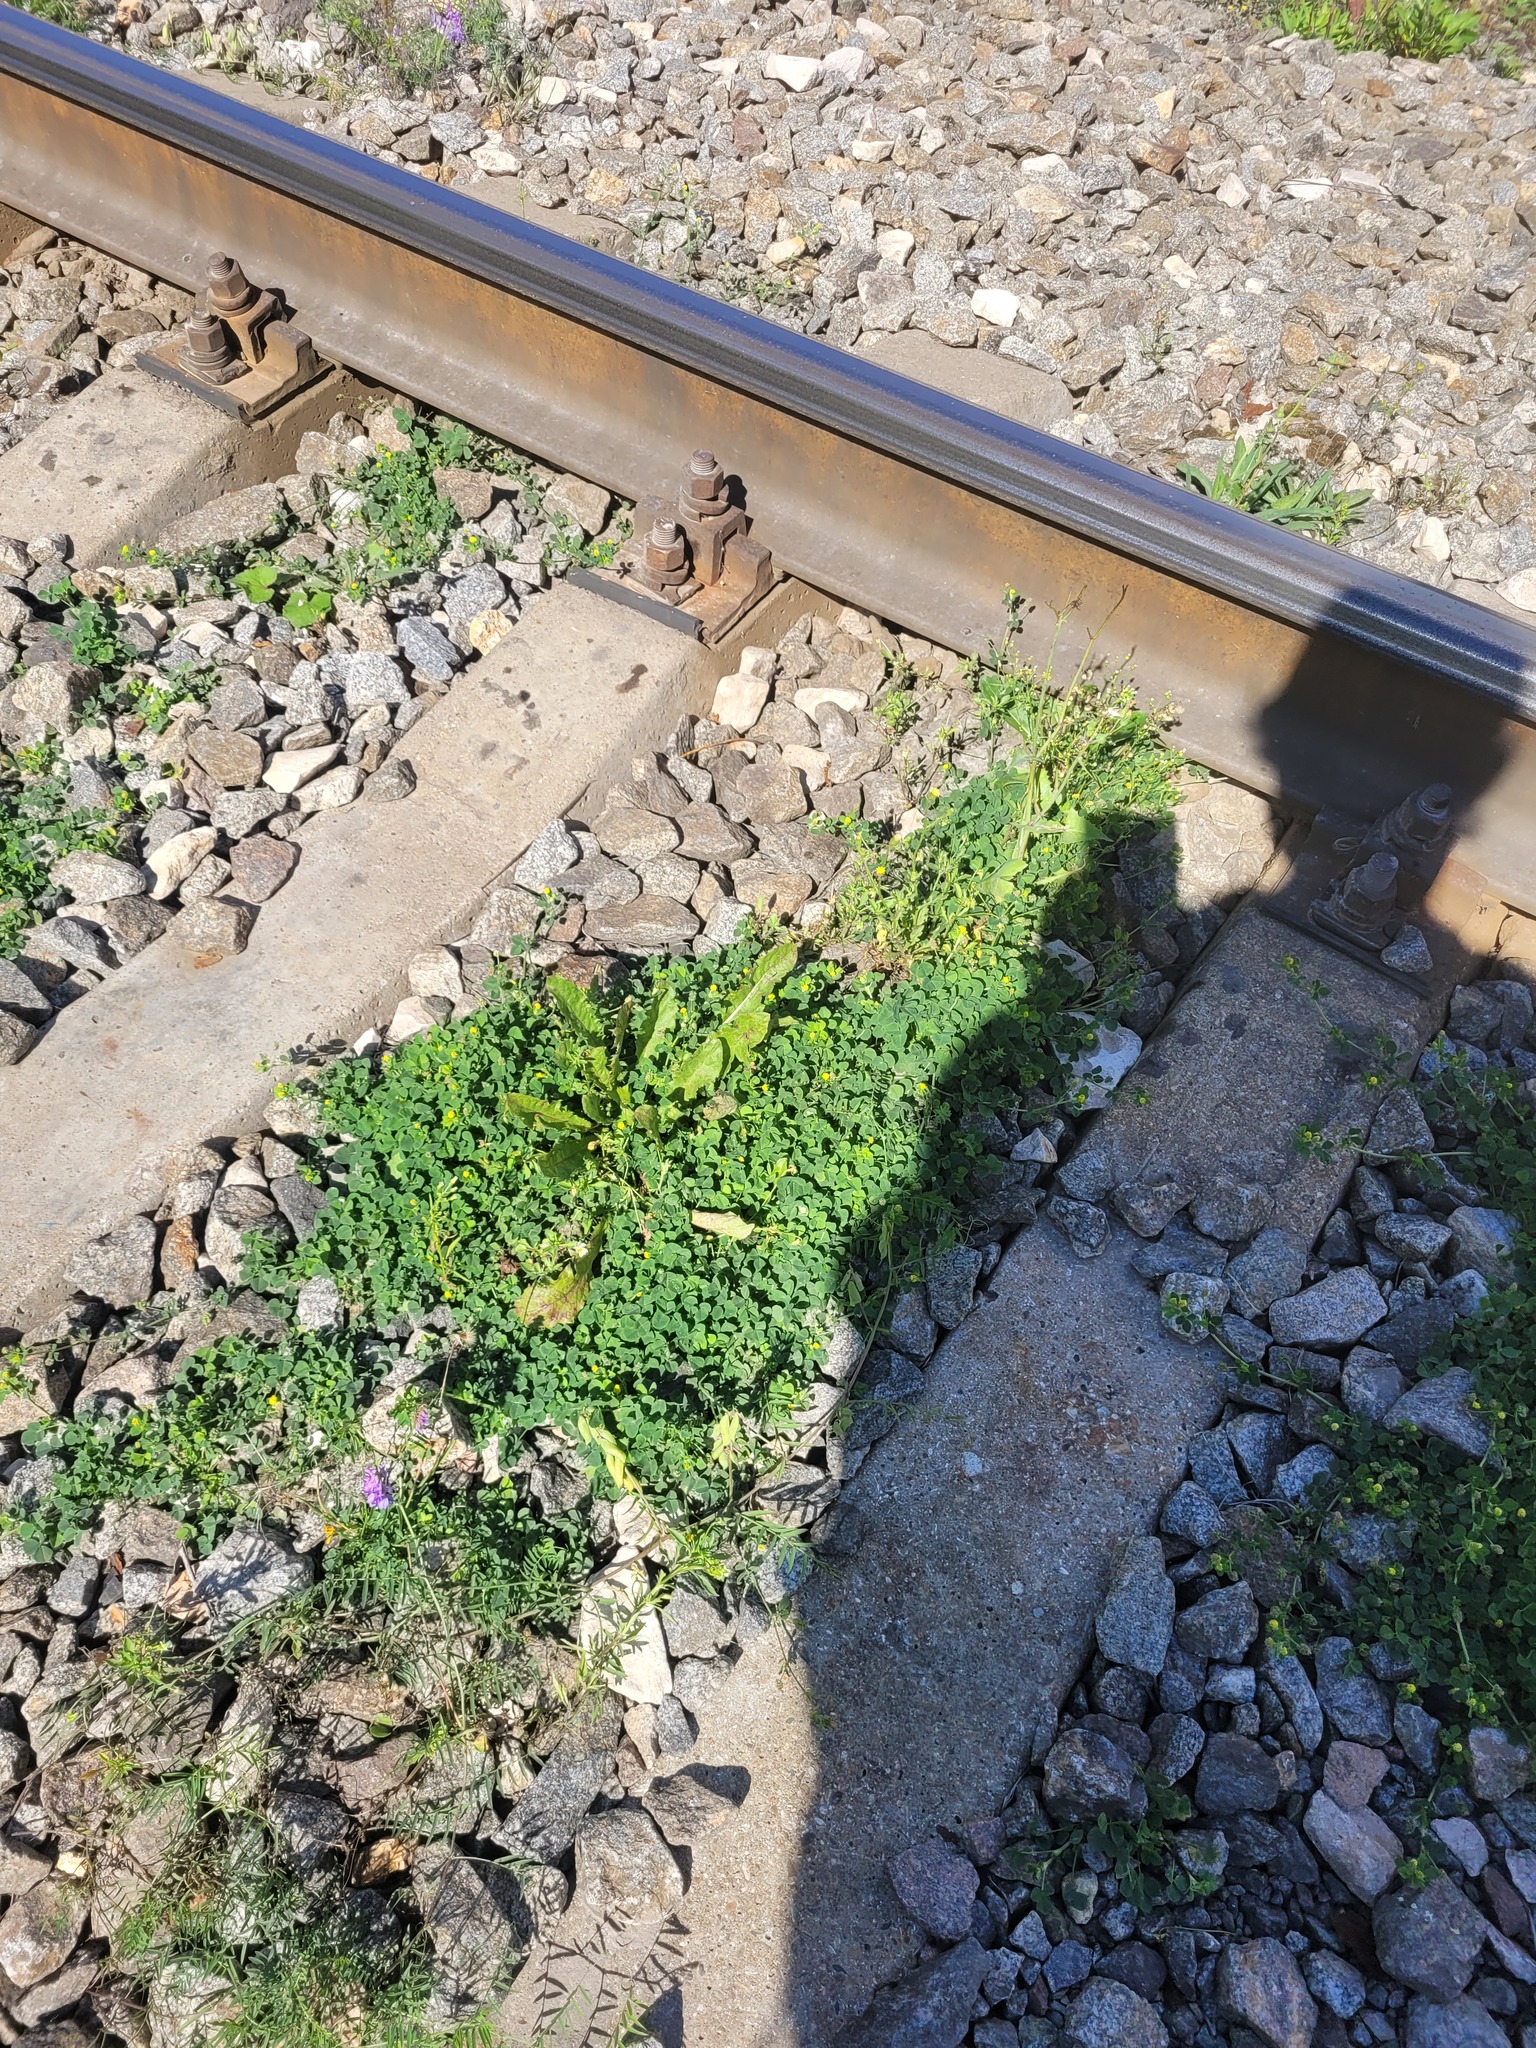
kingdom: Plantae
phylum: Tracheophyta
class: Magnoliopsida
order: Fabales
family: Fabaceae
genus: Medicago
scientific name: Medicago lupulina
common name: Black medick
